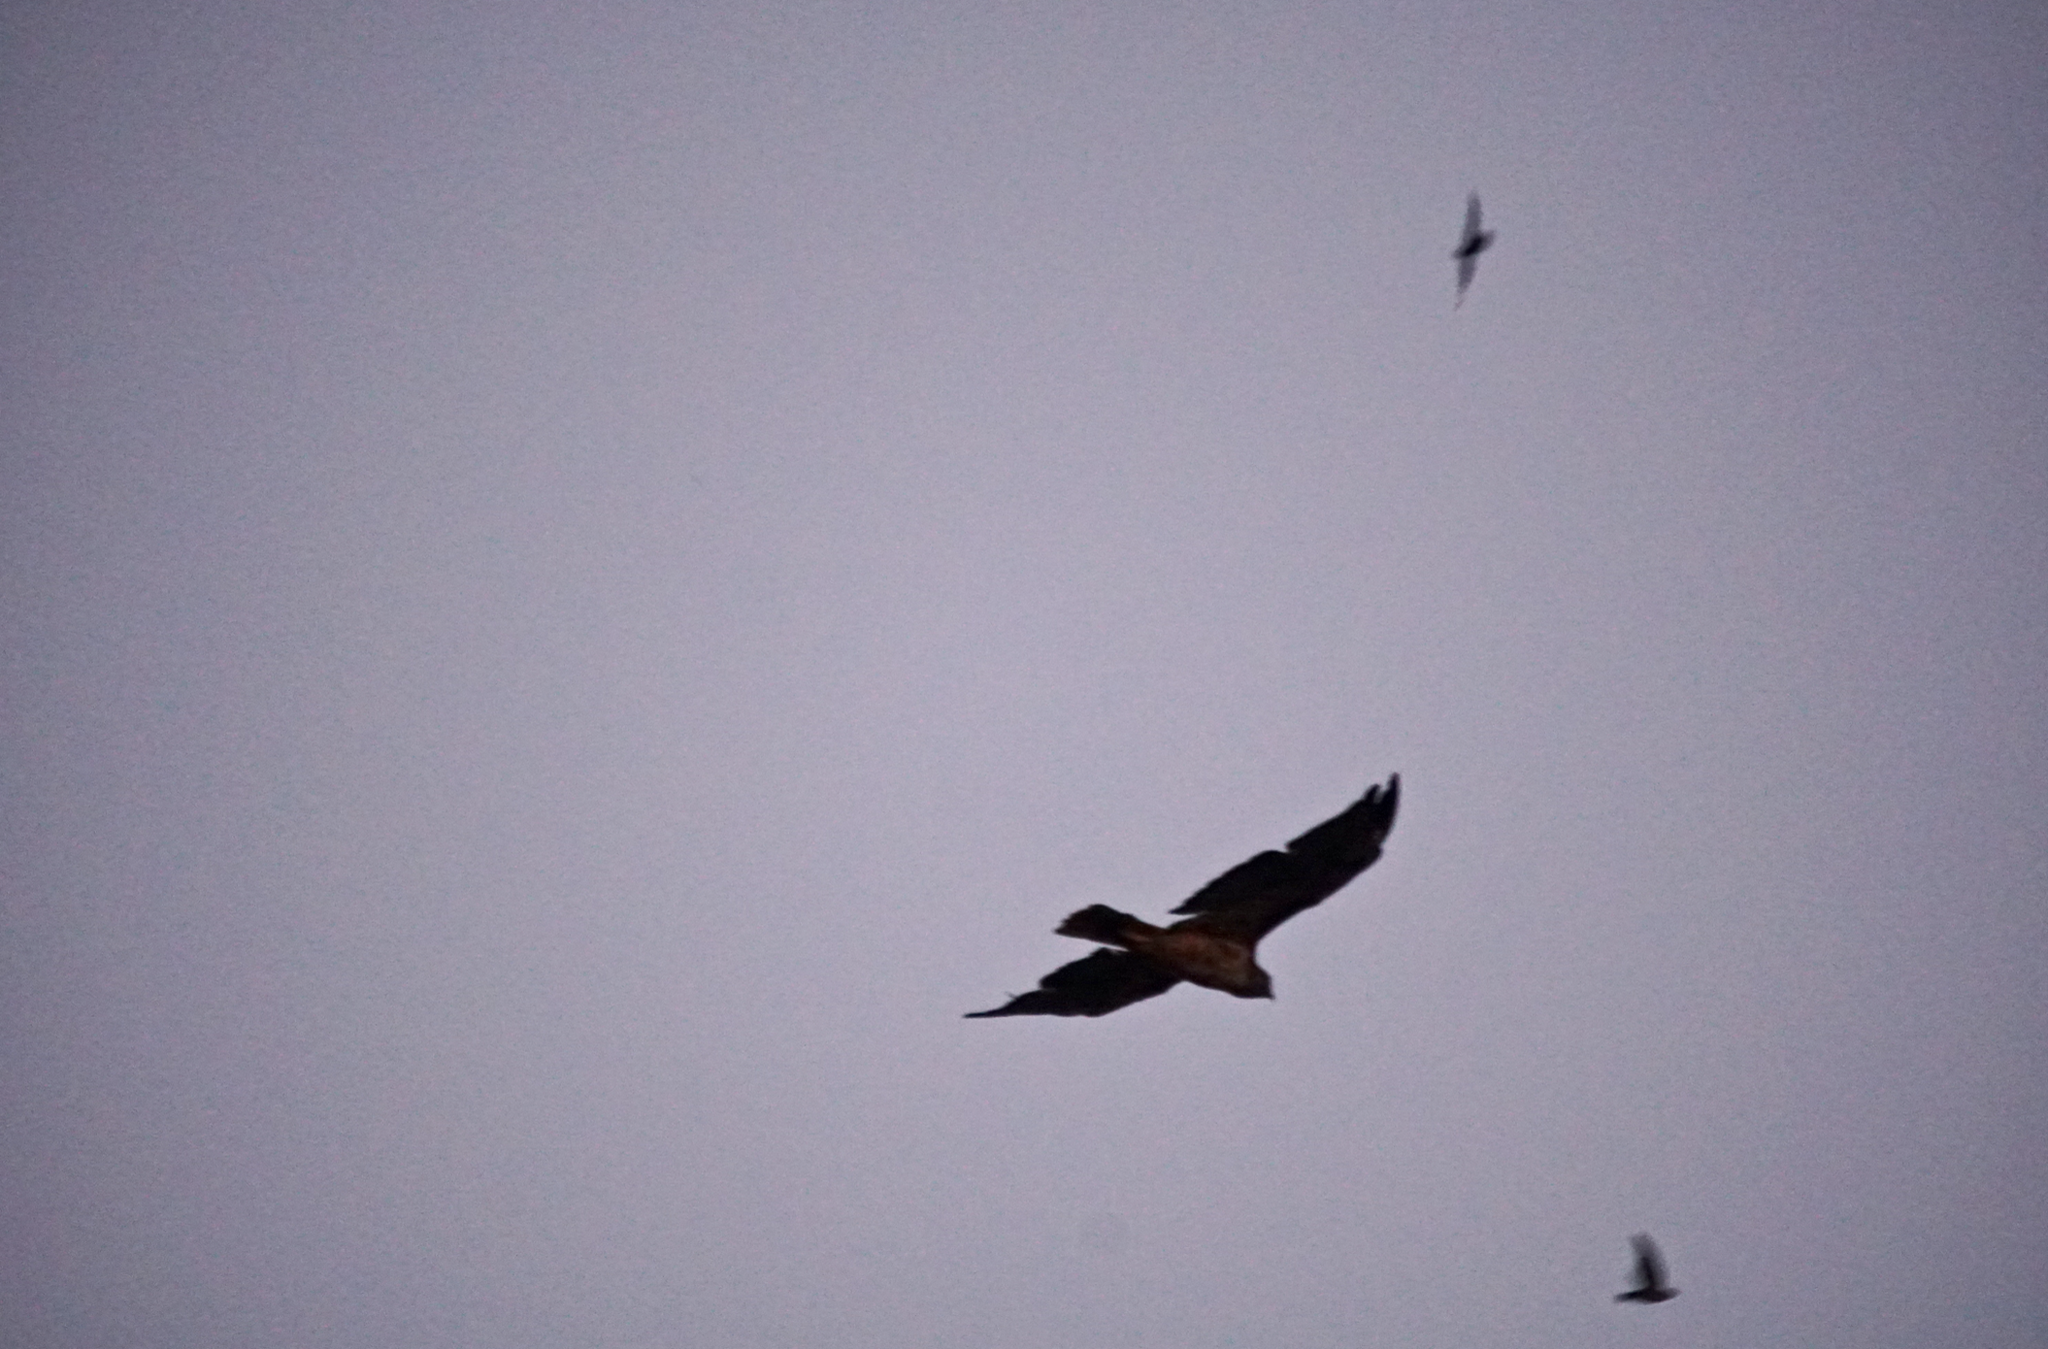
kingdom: Animalia
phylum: Chordata
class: Aves
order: Accipitriformes
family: Accipitridae
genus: Buteo
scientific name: Buteo jamaicensis
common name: Red-tailed hawk
